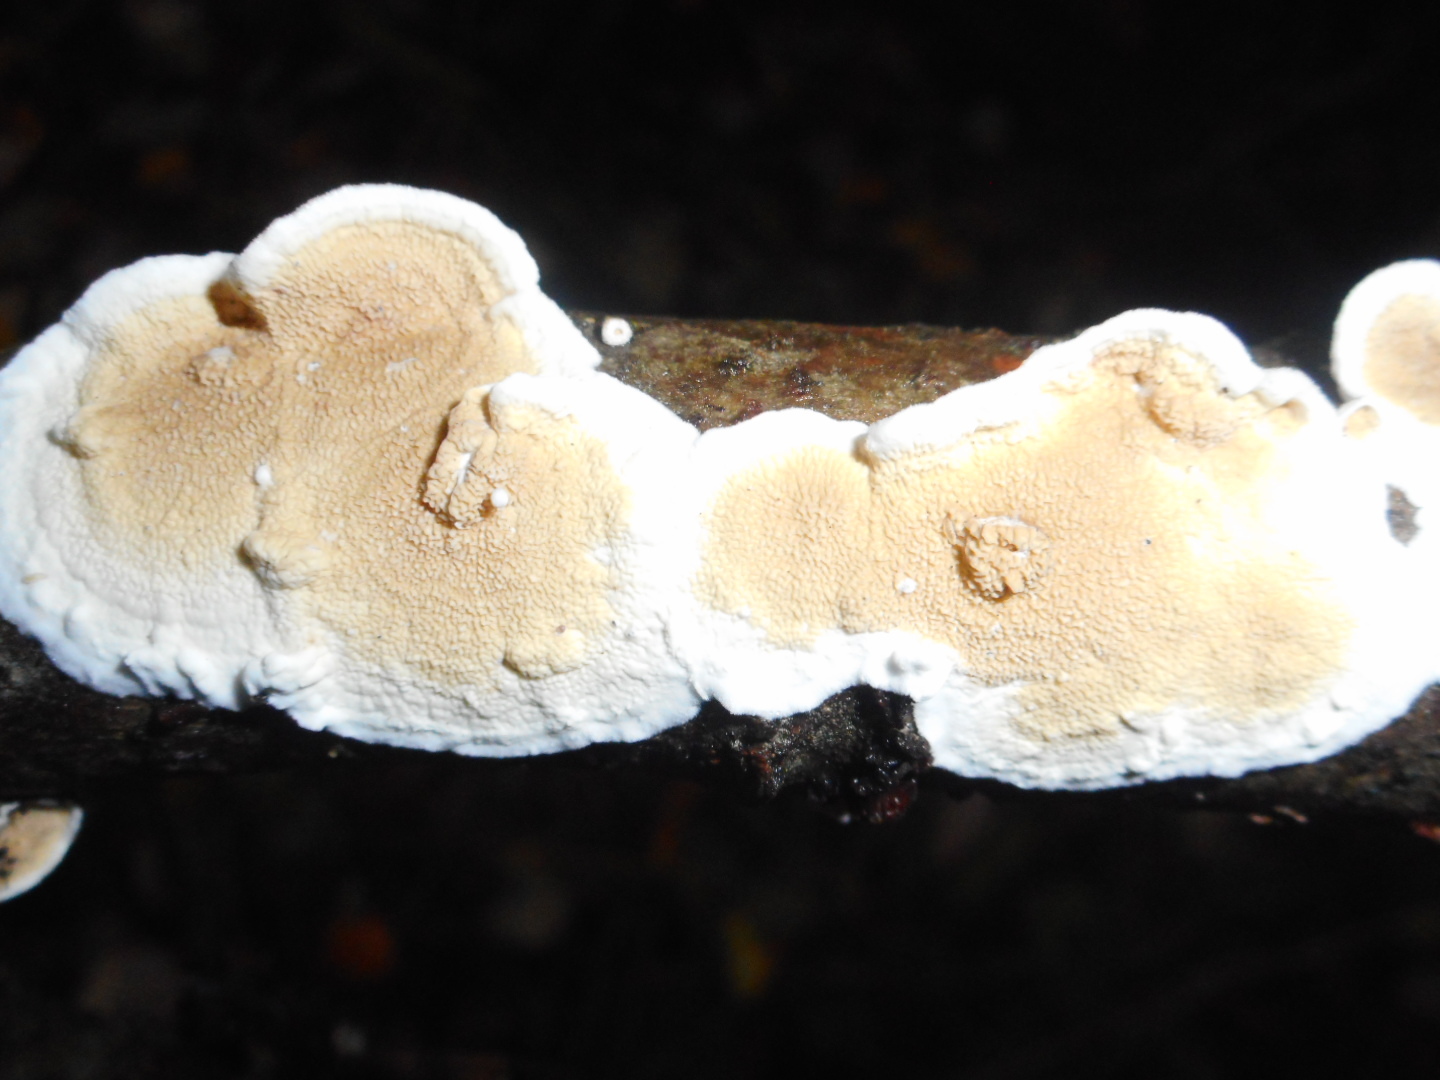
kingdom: Fungi
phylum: Basidiomycota
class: Agaricomycetes
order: Polyporales
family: Irpicaceae
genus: Byssomerulius
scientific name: Byssomerulius corium
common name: Netted crust
